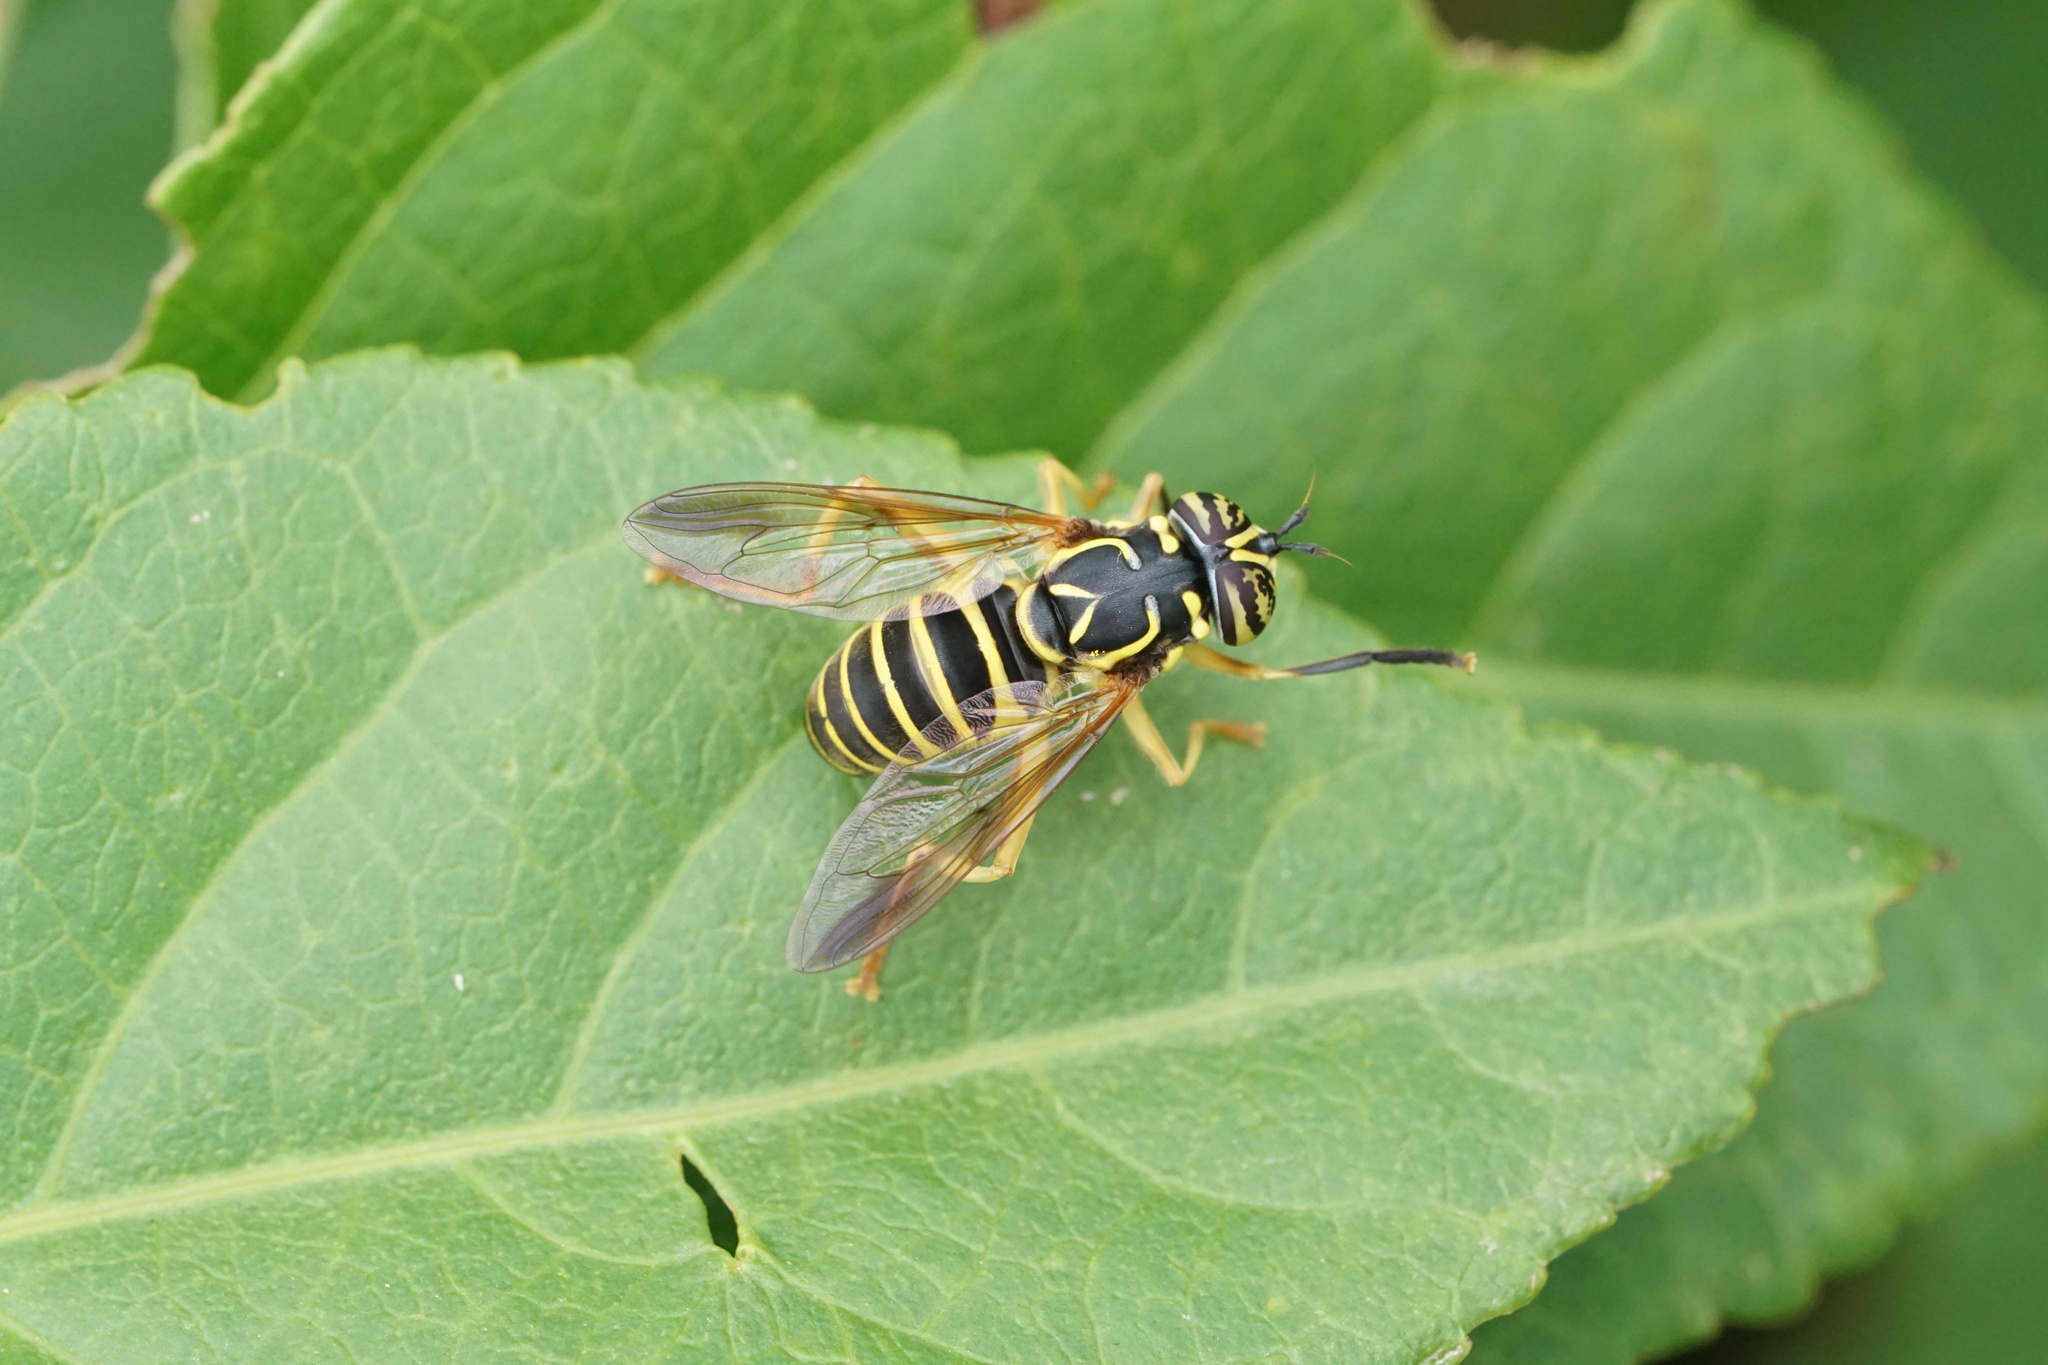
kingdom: Animalia
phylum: Arthropoda
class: Insecta
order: Diptera
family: Syrphidae
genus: Spilomyia
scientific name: Spilomyia longicornis
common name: Eastern hornet fly
